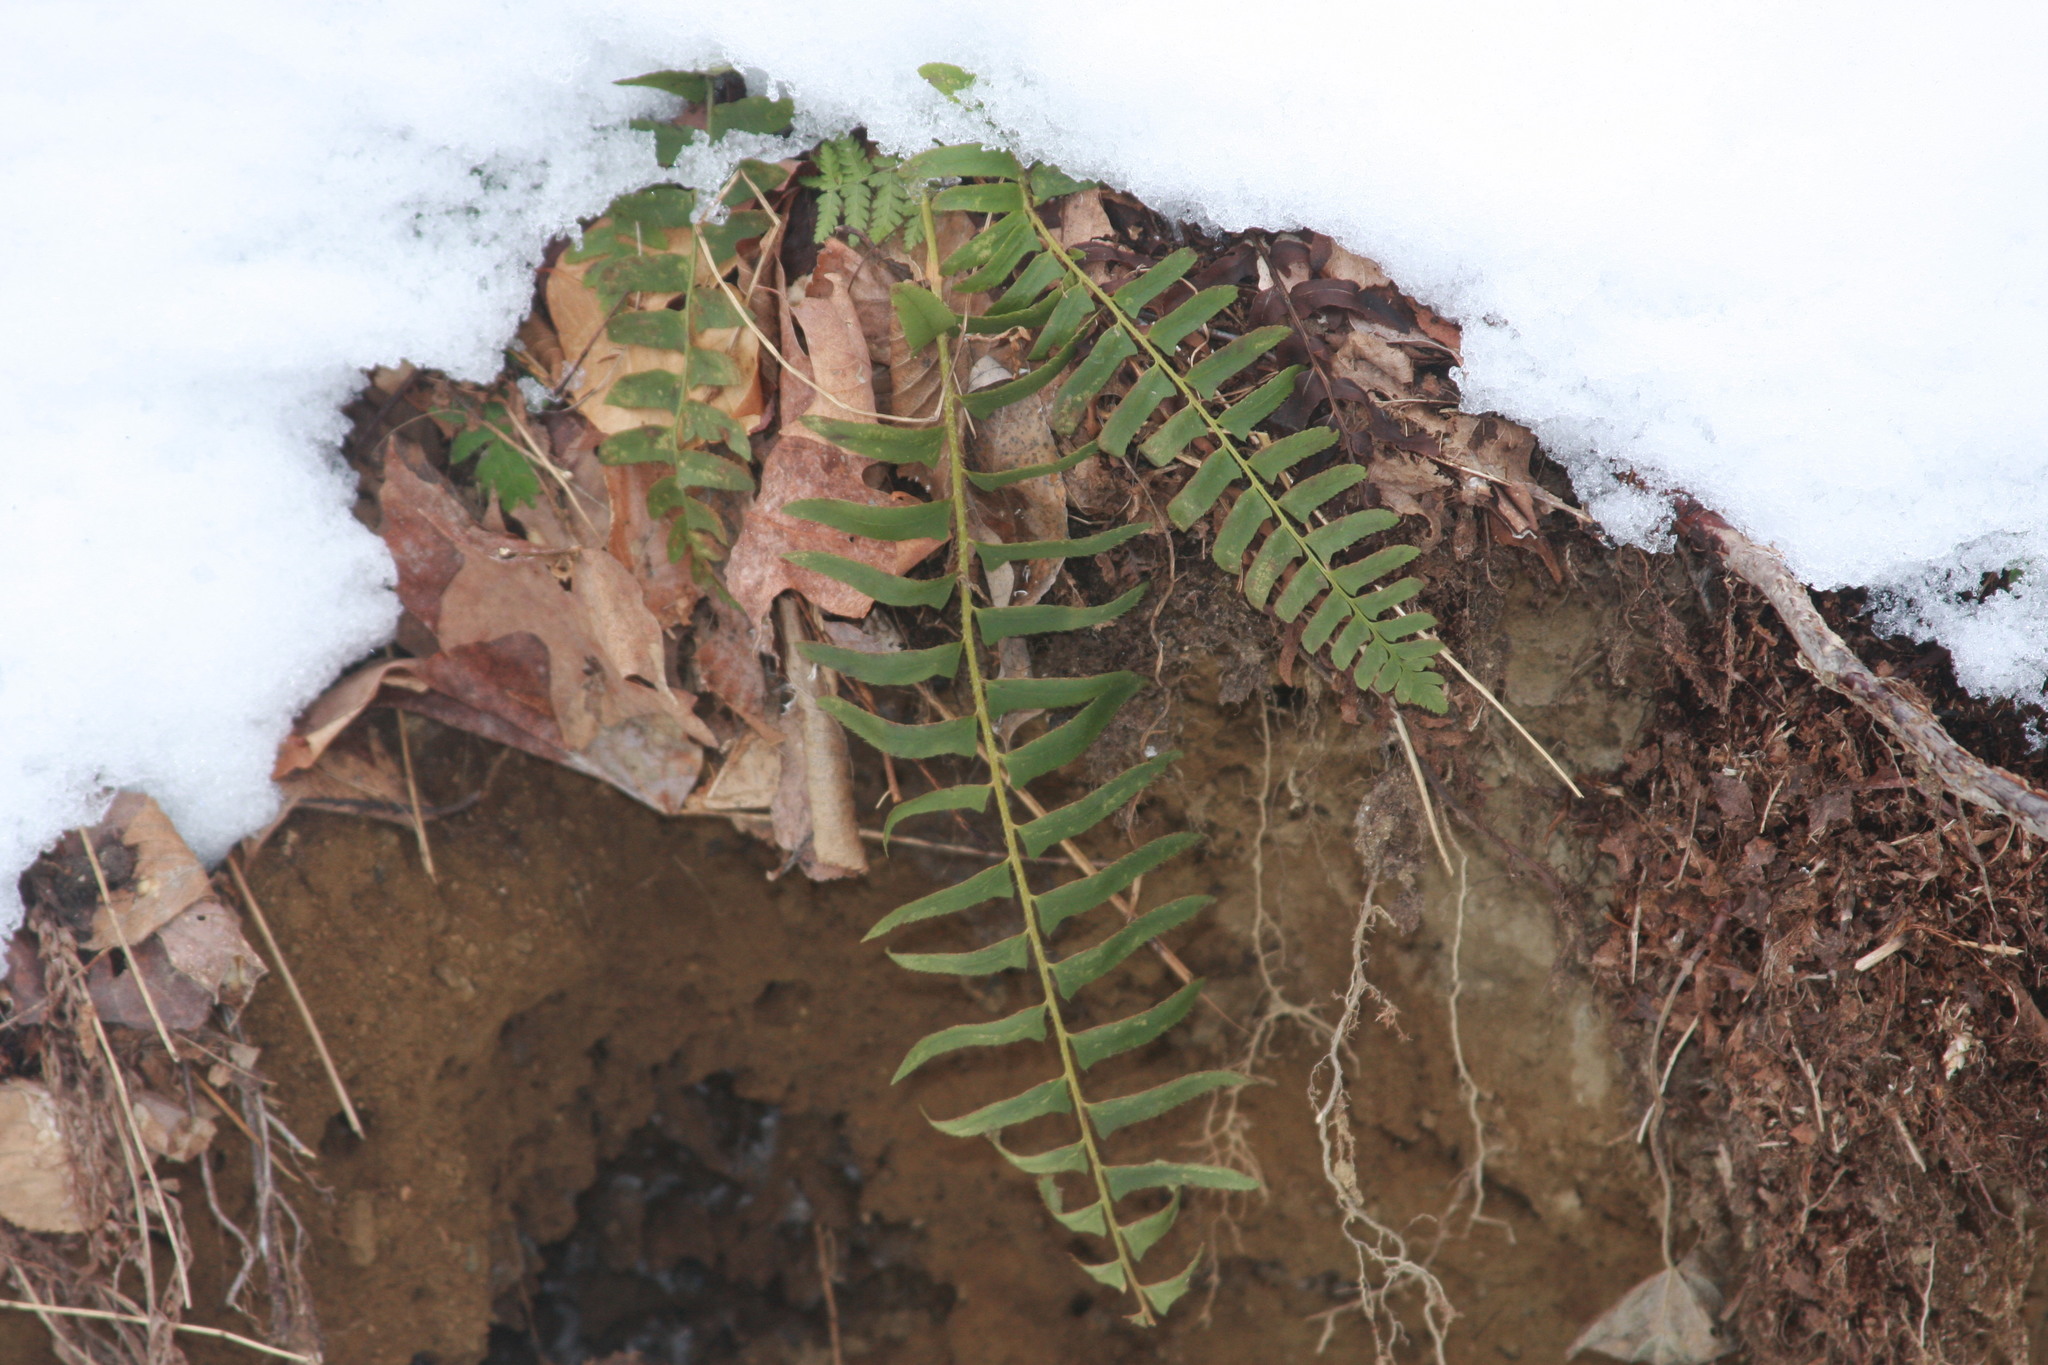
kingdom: Plantae
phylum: Tracheophyta
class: Polypodiopsida
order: Polypodiales
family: Dryopteridaceae
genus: Polystichum
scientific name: Polystichum acrostichoides
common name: Christmas fern
